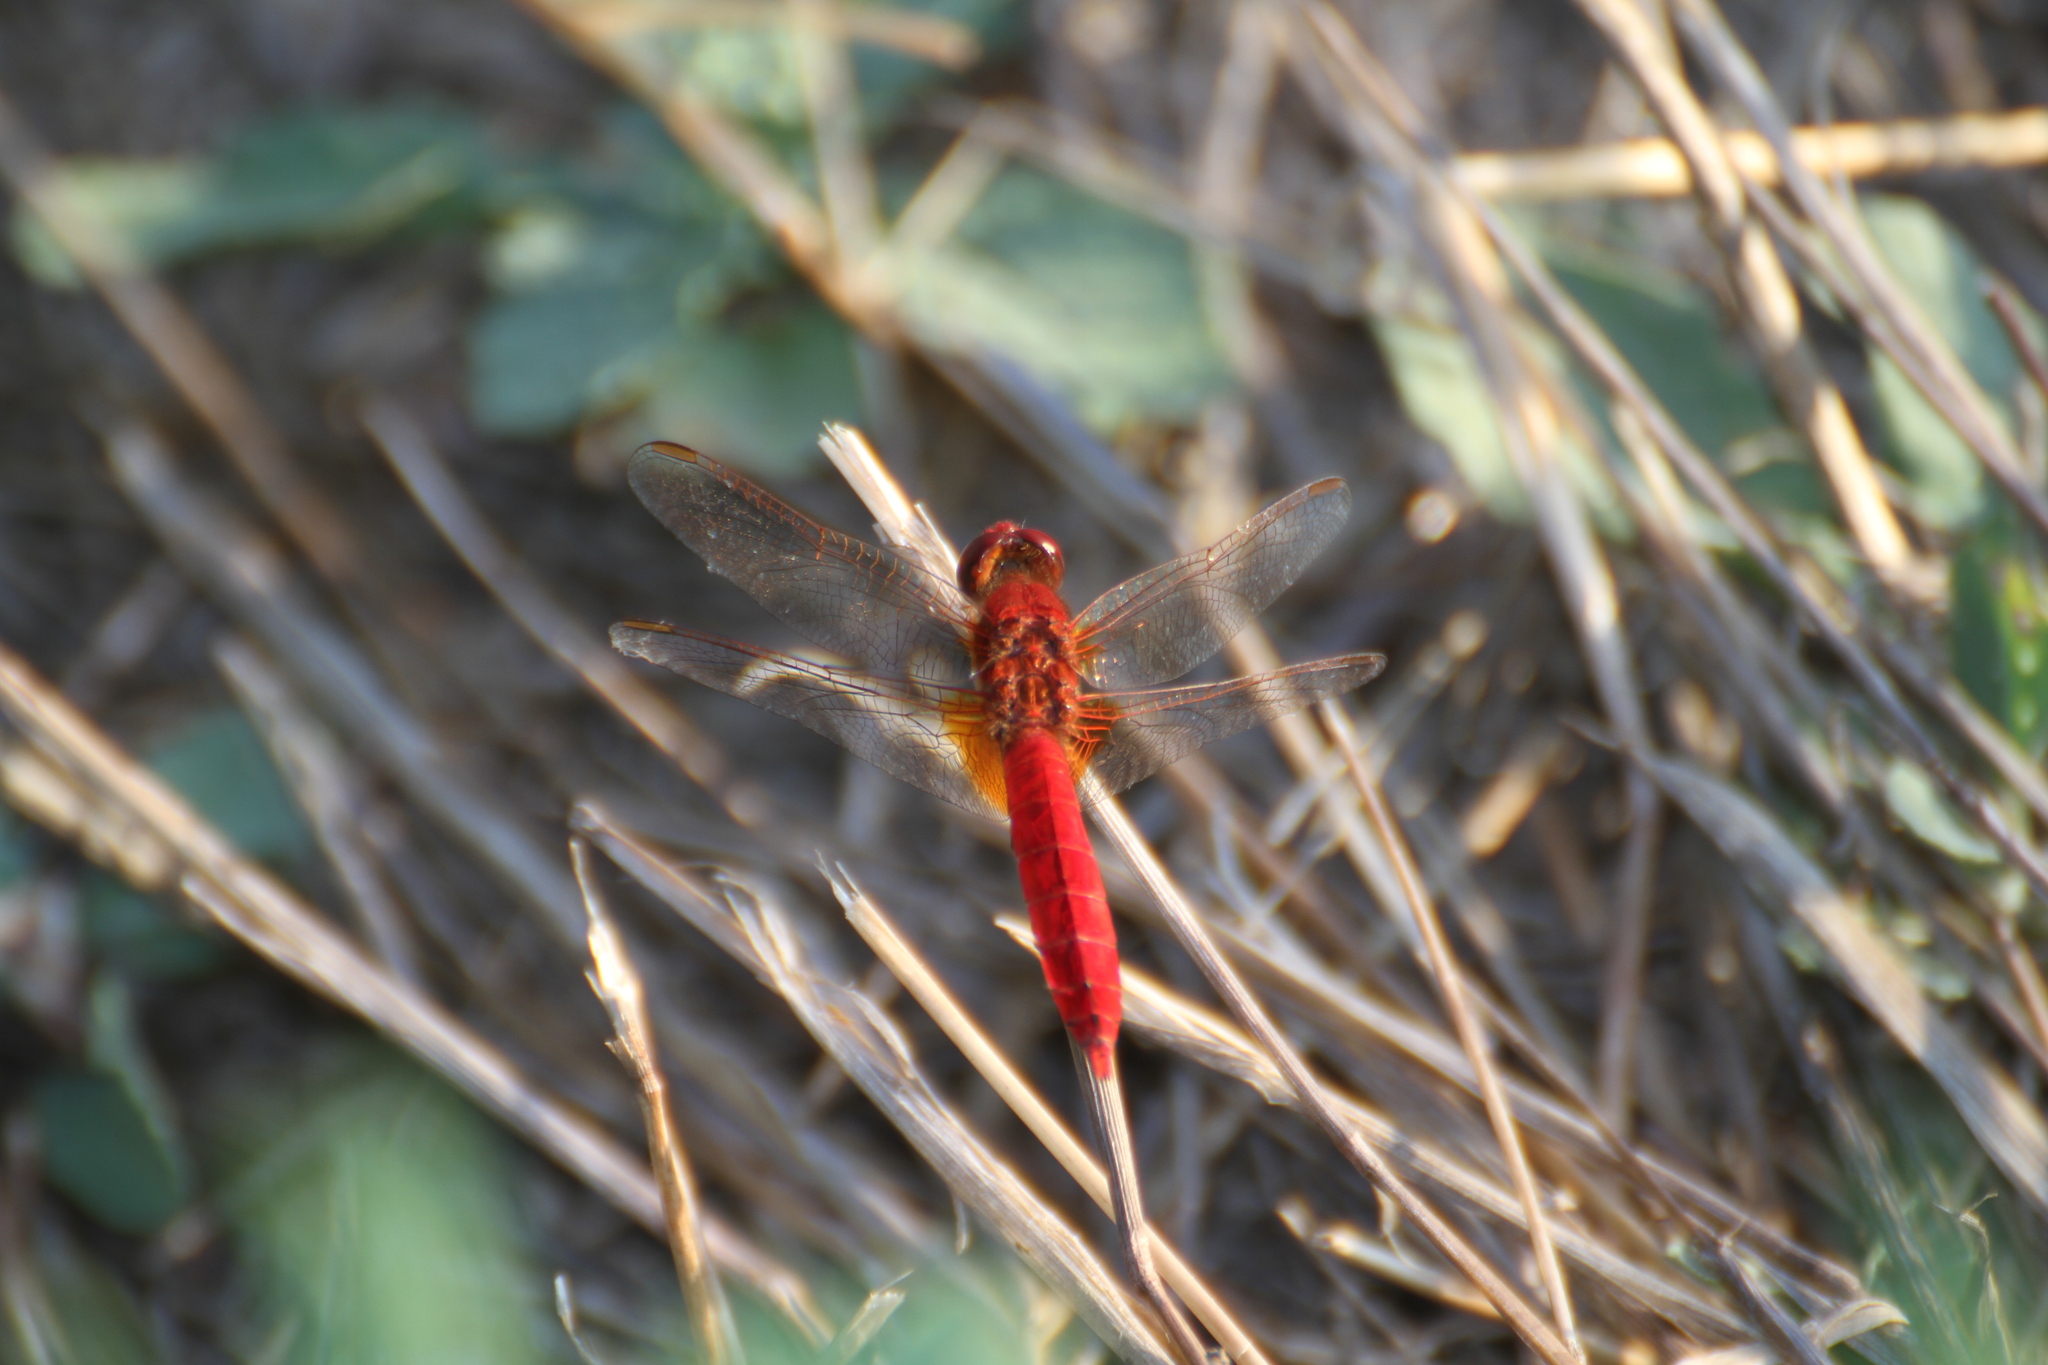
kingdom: Animalia
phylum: Arthropoda
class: Insecta
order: Odonata
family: Libellulidae
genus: Crocothemis
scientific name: Crocothemis erythraea
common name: Scarlet dragonfly
